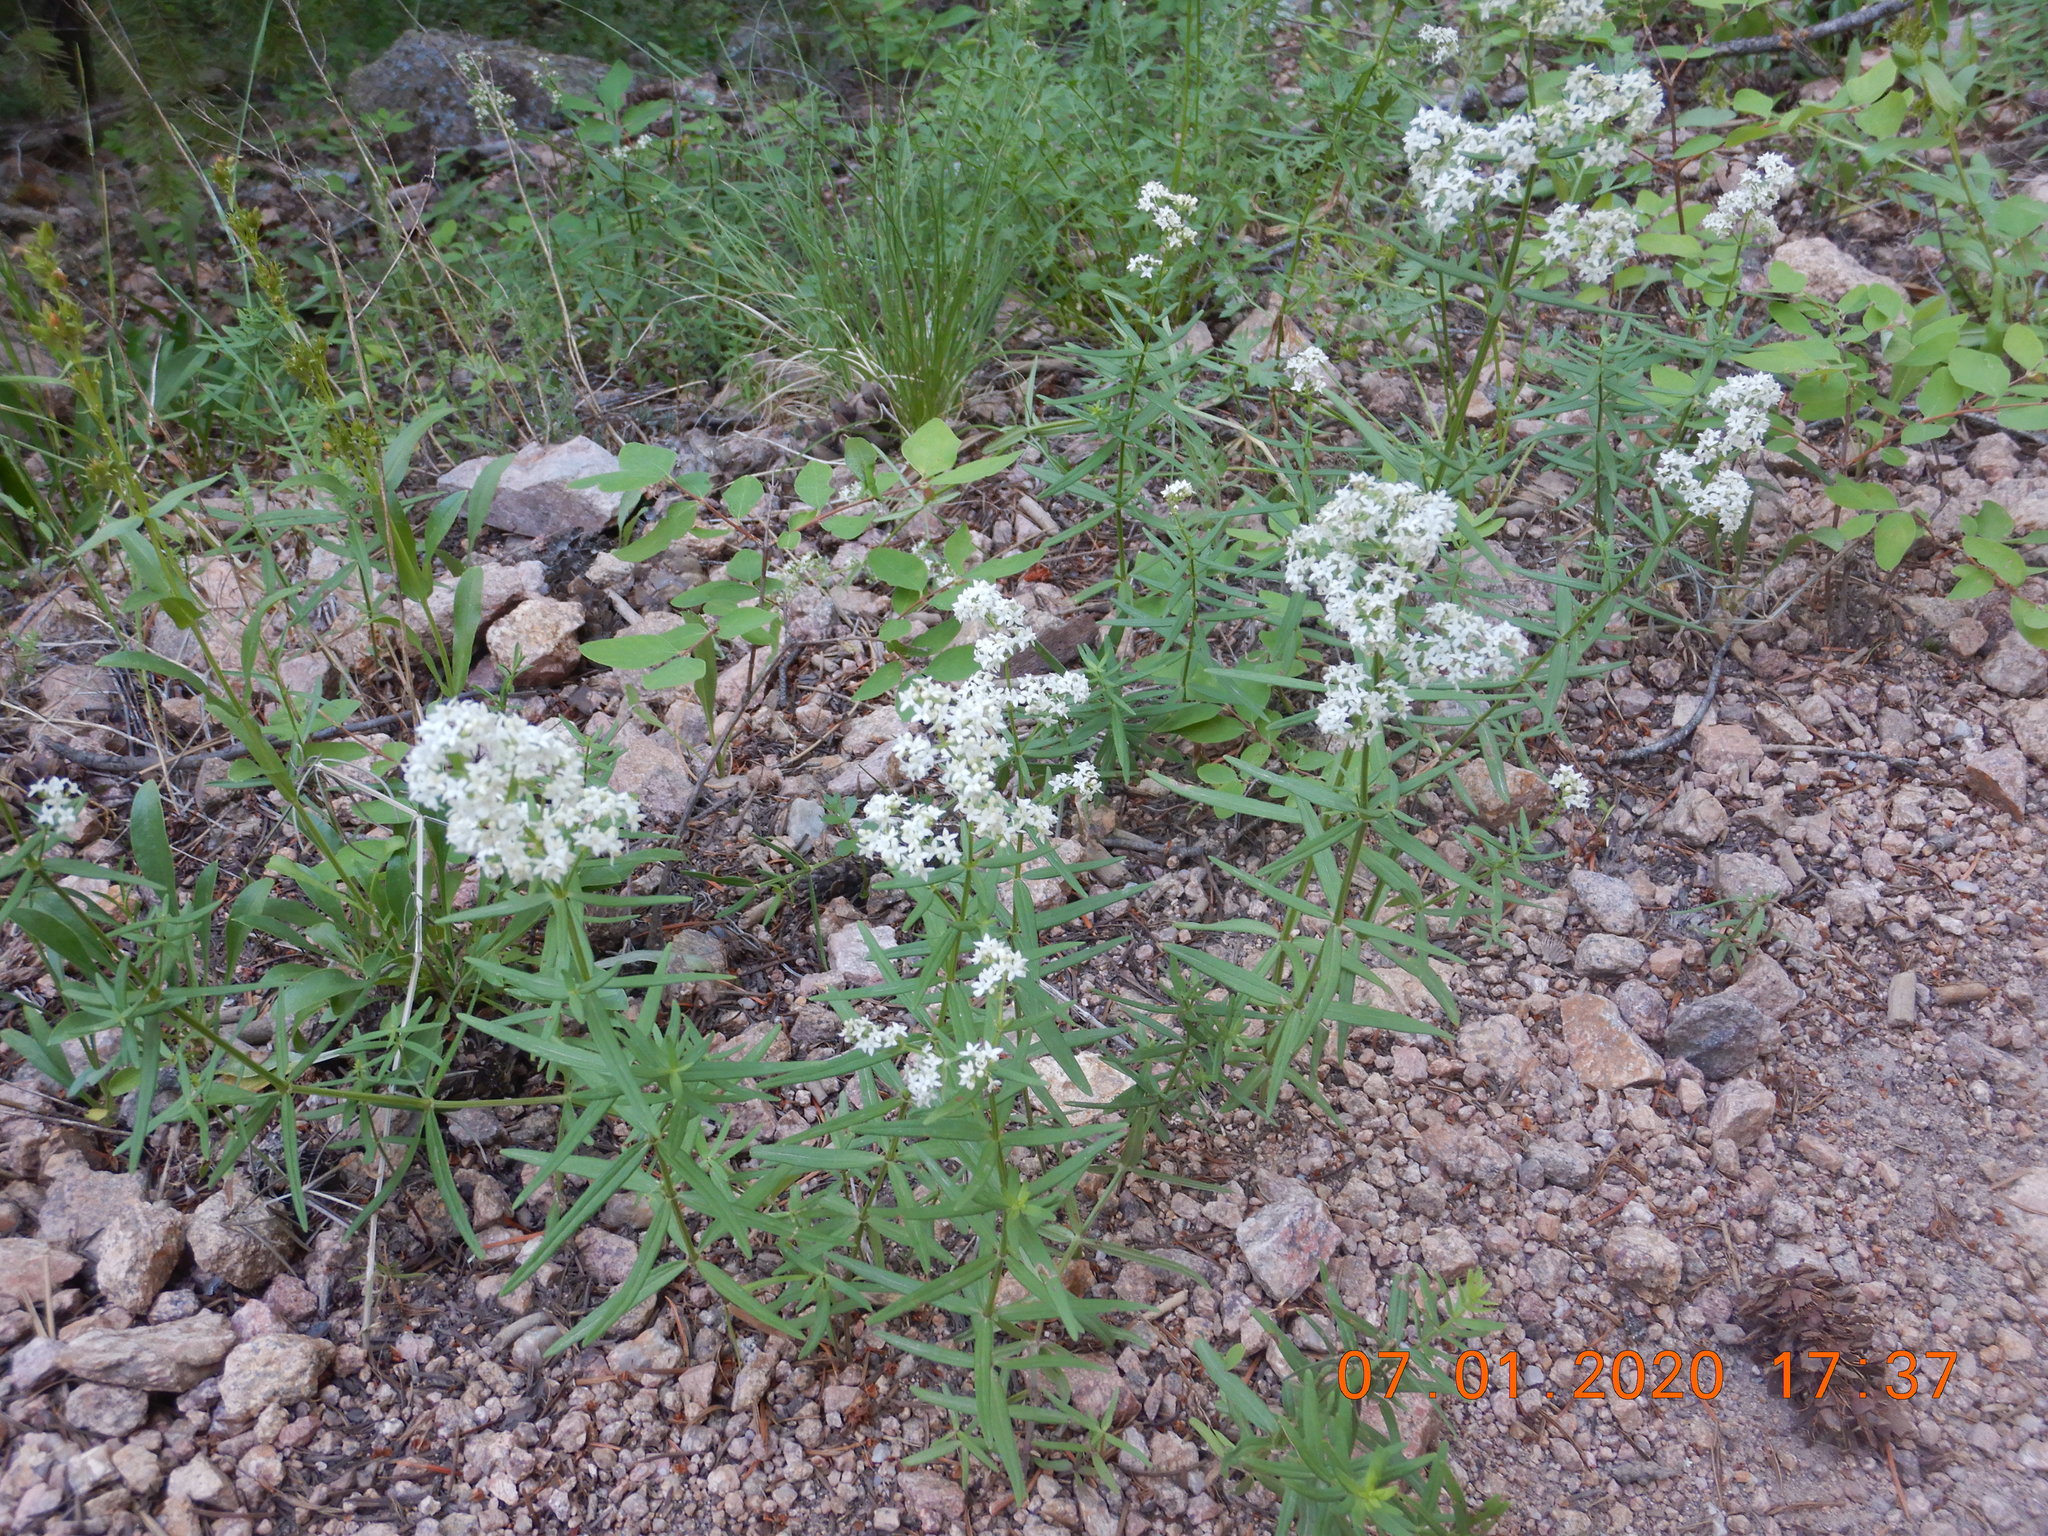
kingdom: Plantae
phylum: Tracheophyta
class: Magnoliopsida
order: Gentianales
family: Rubiaceae
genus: Galium
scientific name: Galium boreale
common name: Northern bedstraw
